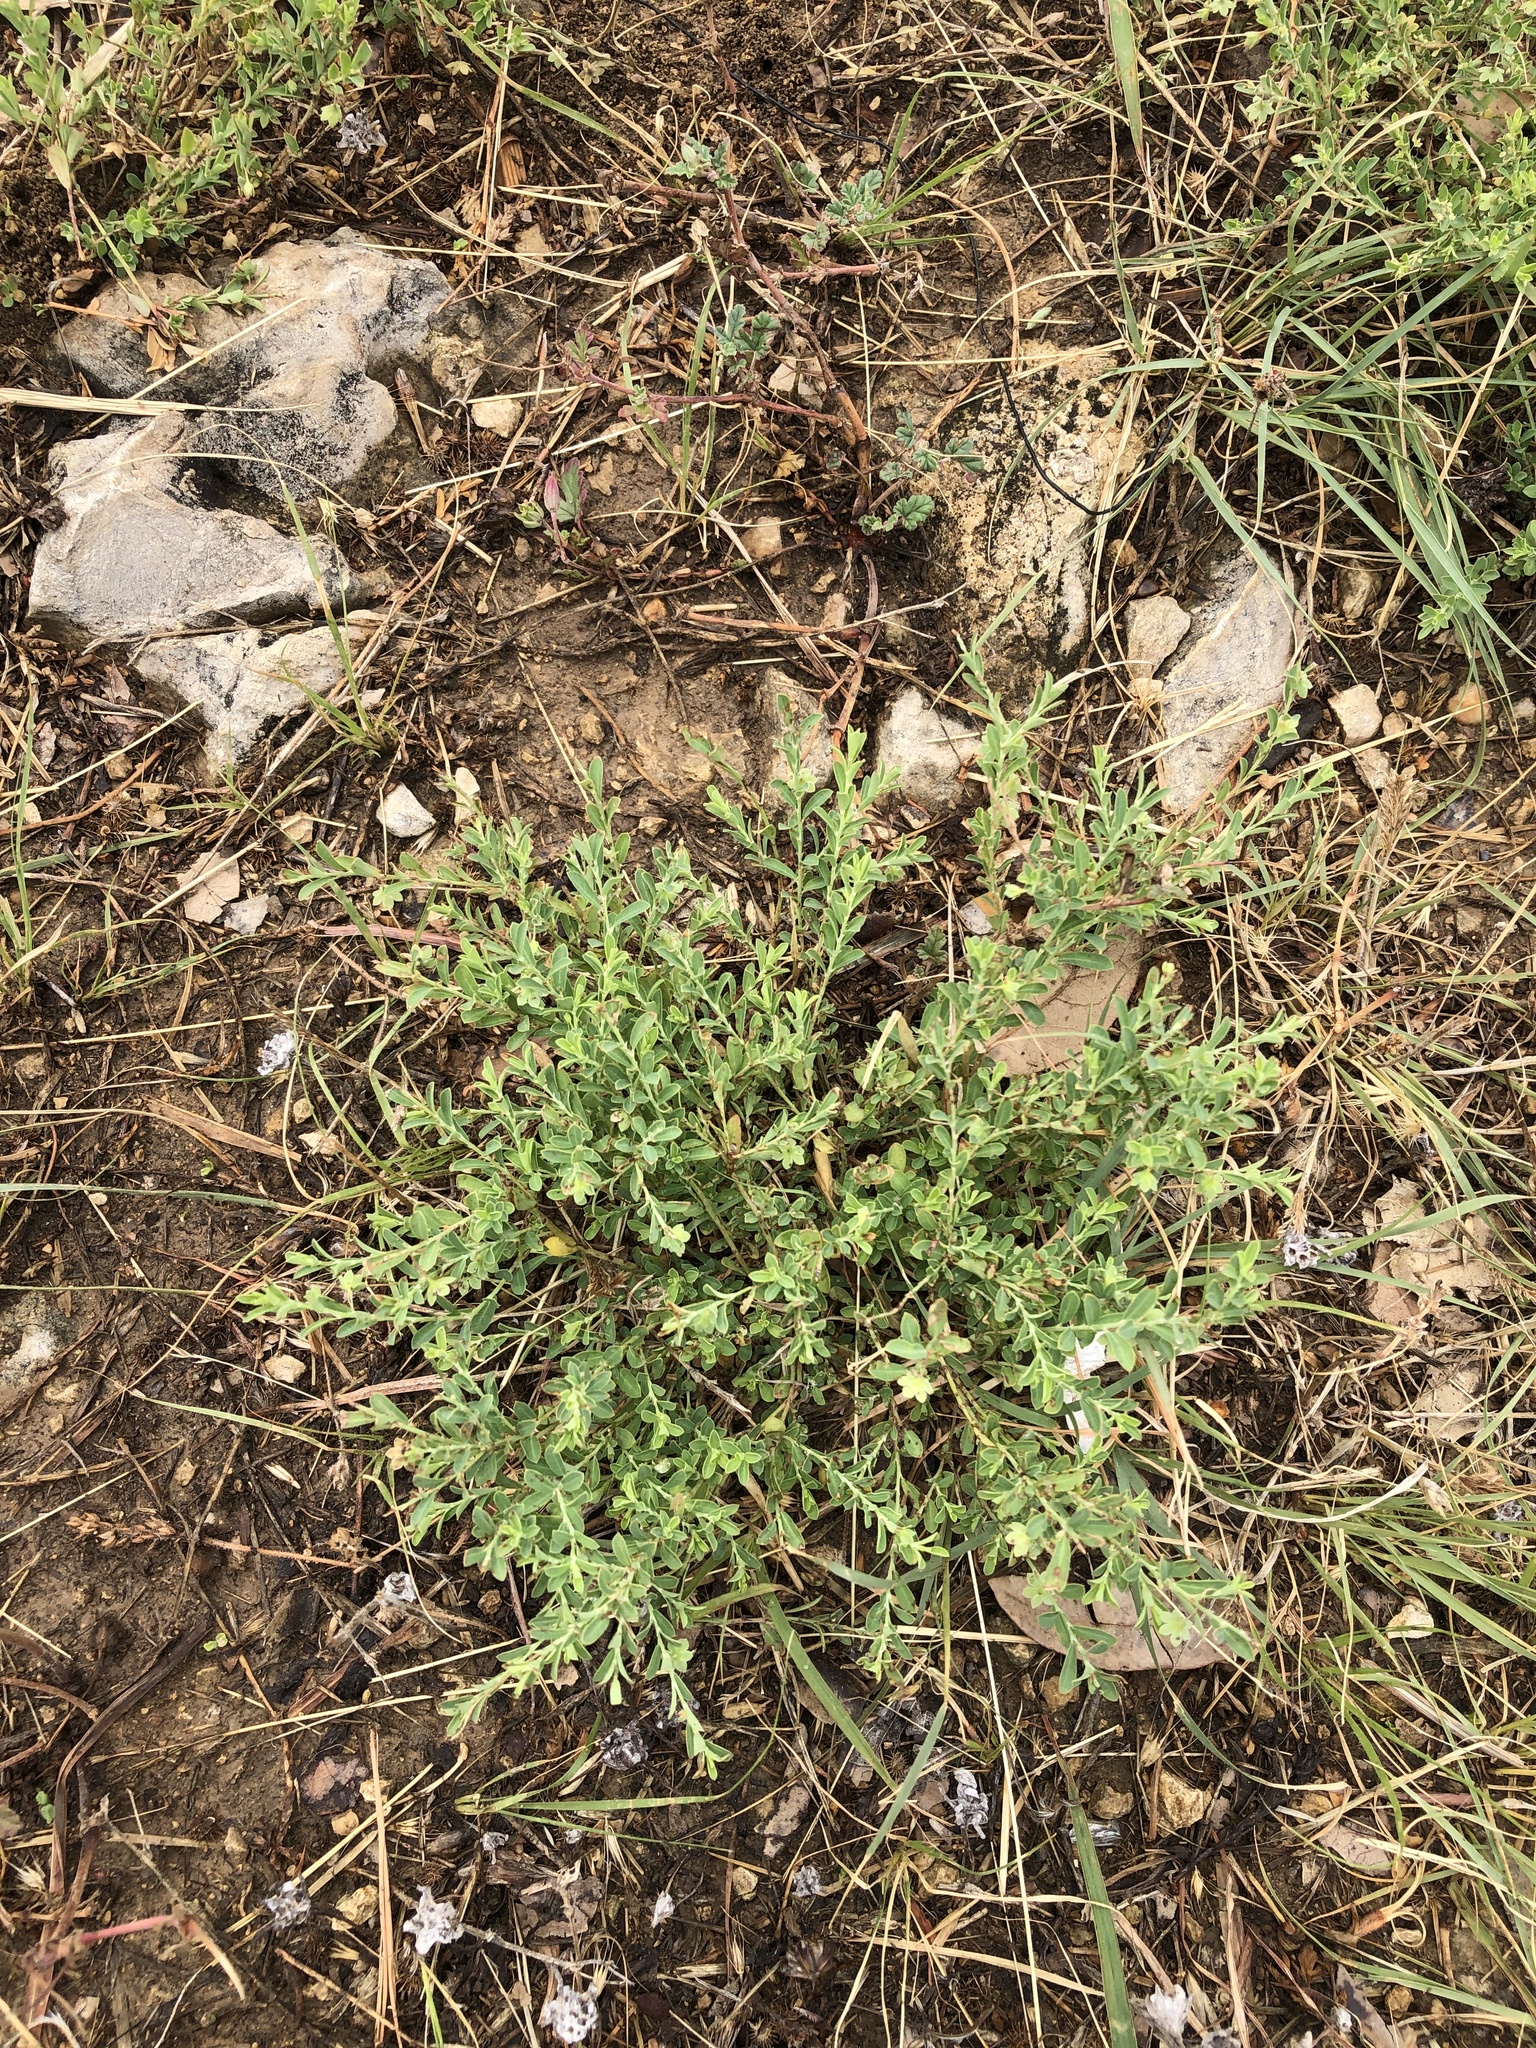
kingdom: Plantae
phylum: Tracheophyta
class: Magnoliopsida
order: Malpighiales
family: Phyllanthaceae
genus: Phyllanthus
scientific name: Phyllanthus polygonoides
